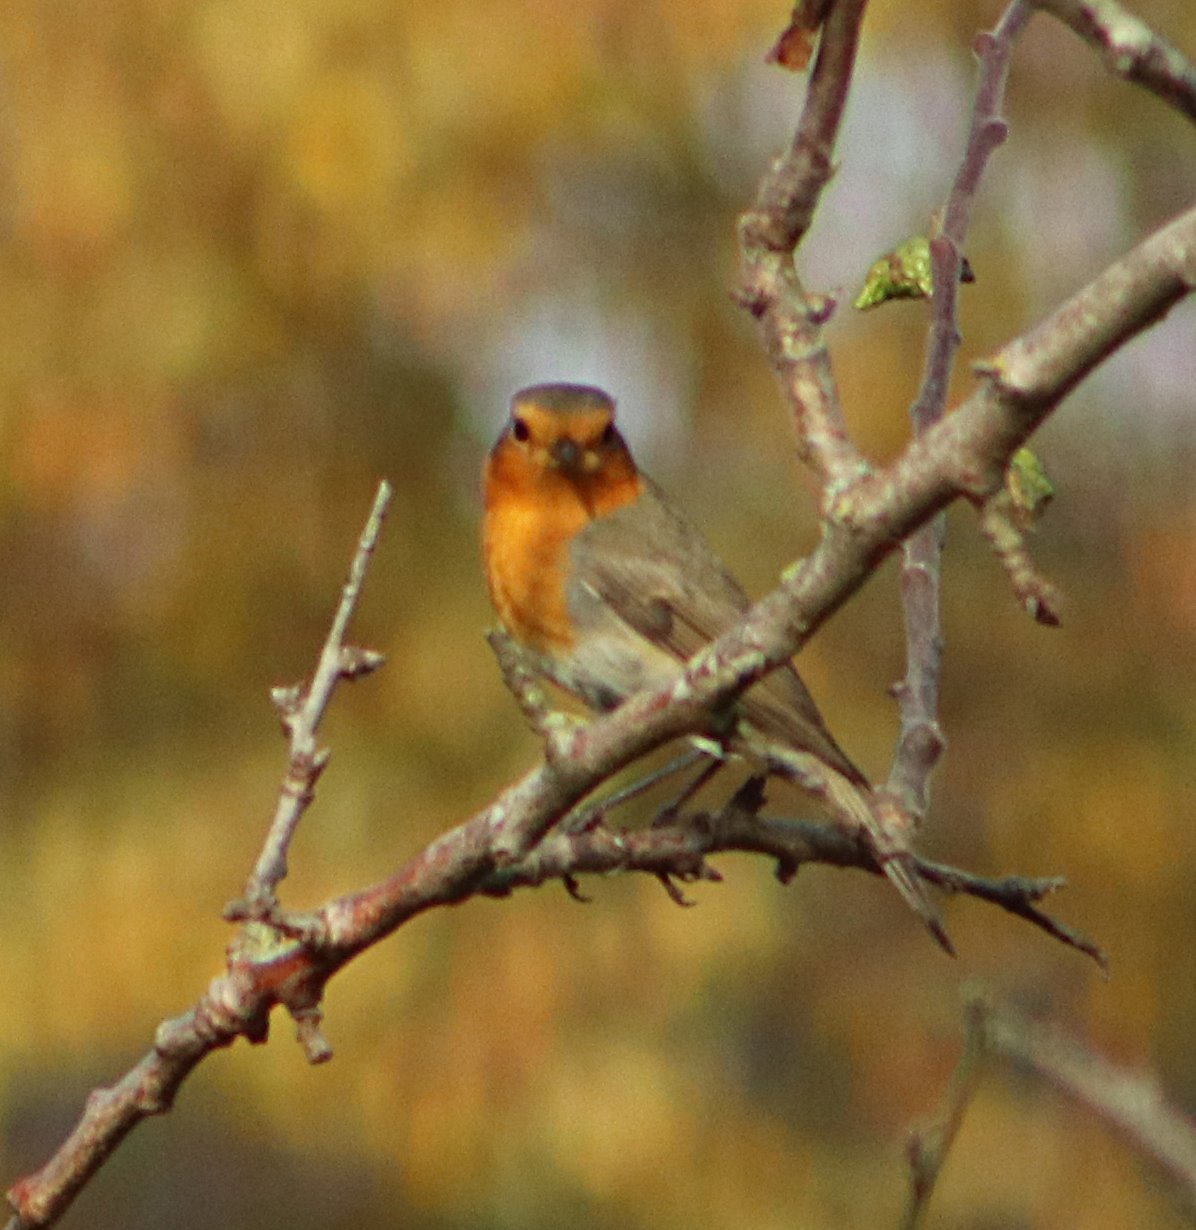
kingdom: Animalia
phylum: Chordata
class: Aves
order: Passeriformes
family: Muscicapidae
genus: Erithacus
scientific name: Erithacus rubecula
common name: European robin
